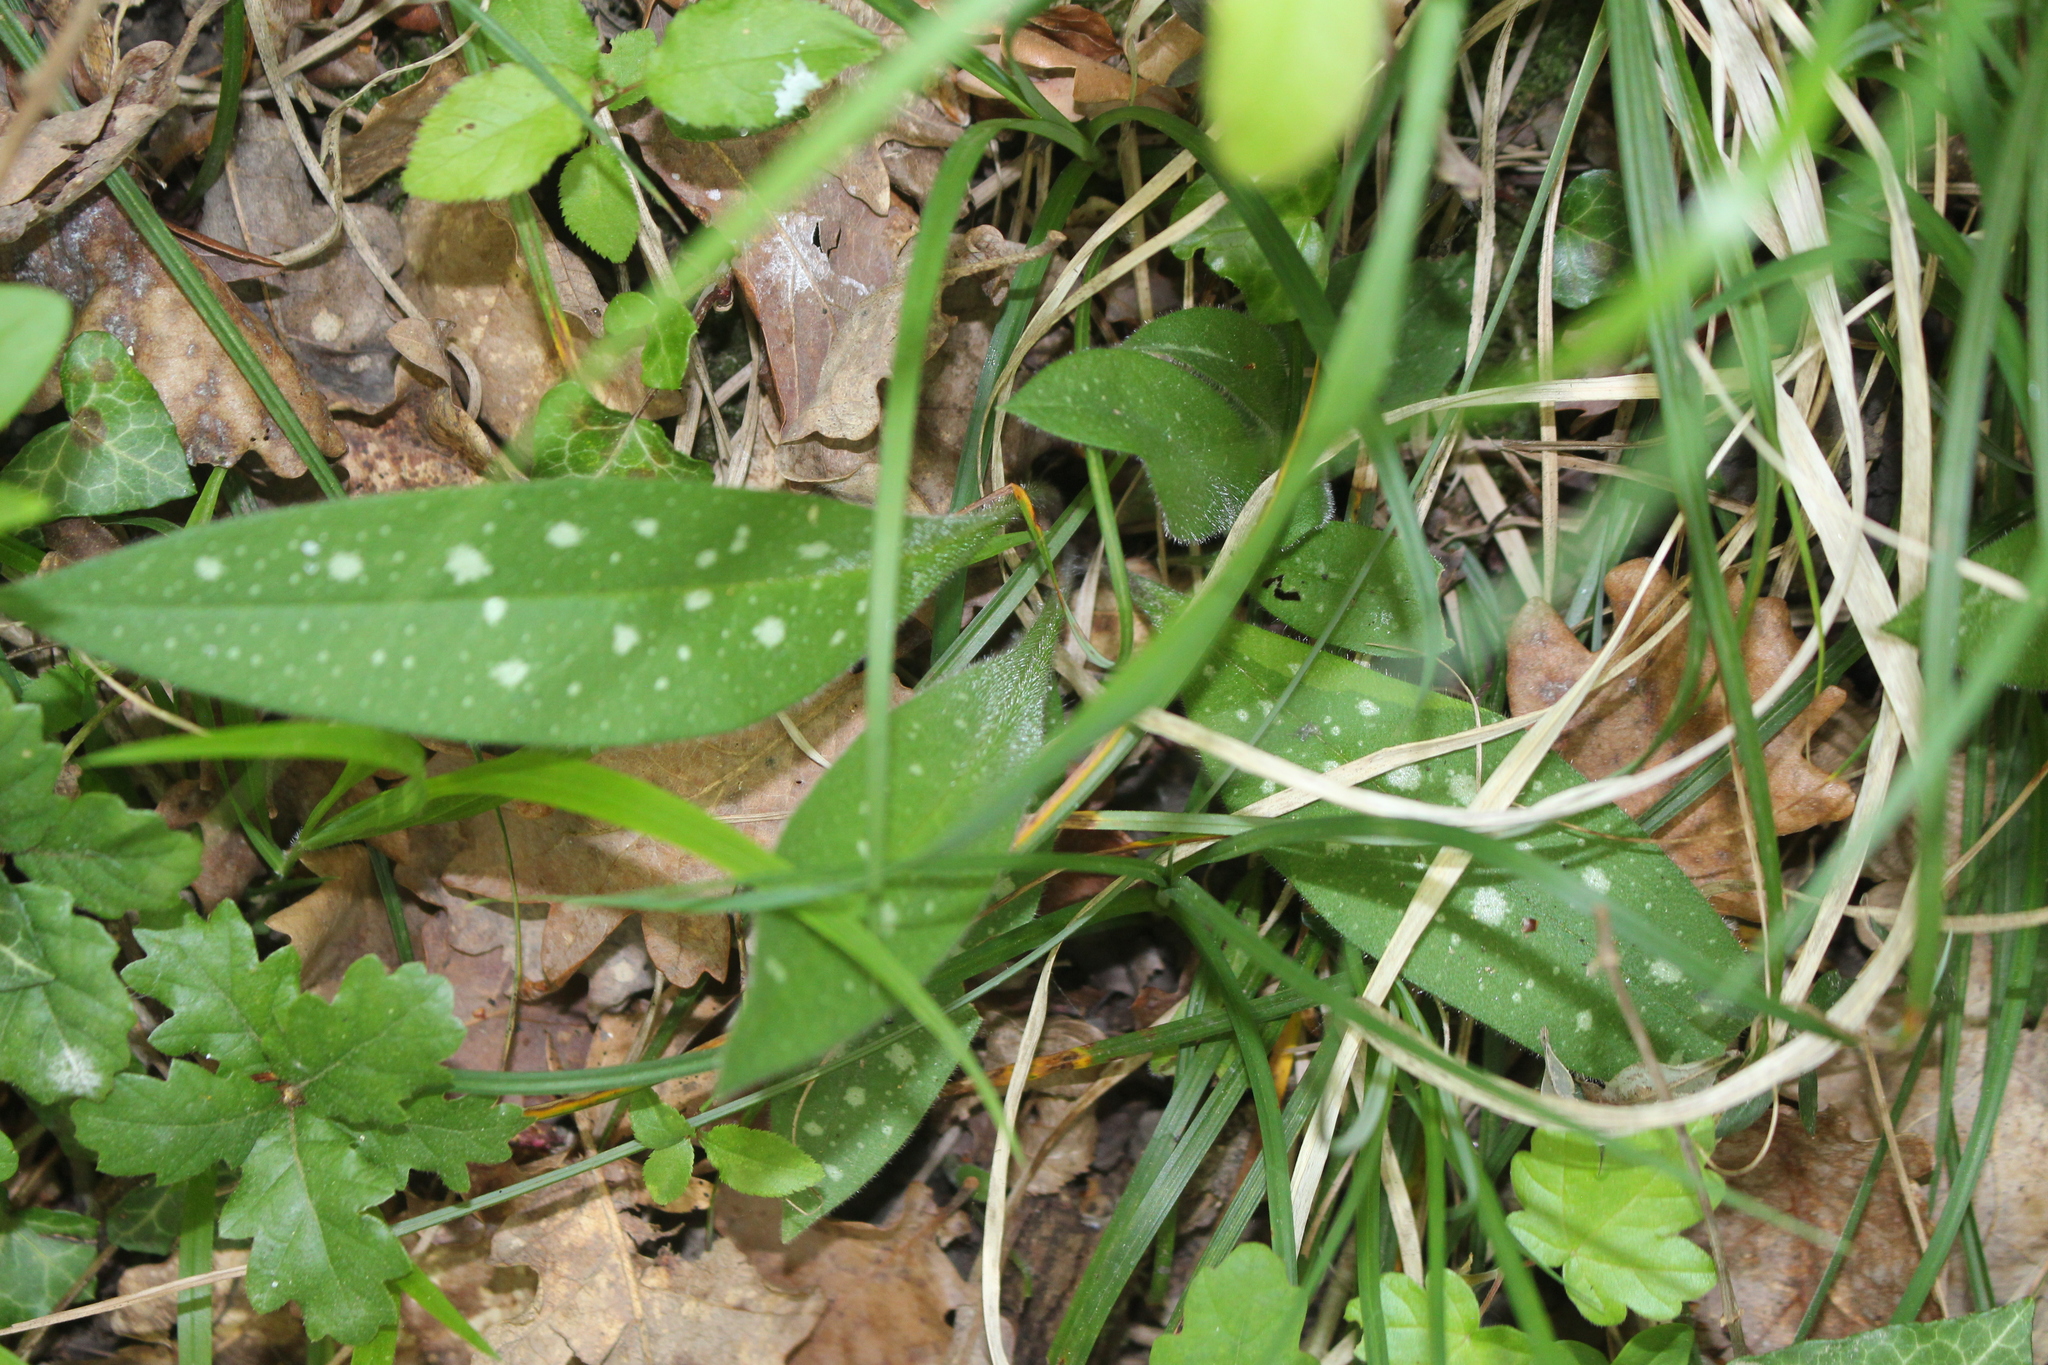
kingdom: Plantae
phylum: Tracheophyta
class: Magnoliopsida
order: Boraginales
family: Boraginaceae
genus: Pulmonaria
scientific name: Pulmonaria longifolia
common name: Narrow-leaved lungwort
